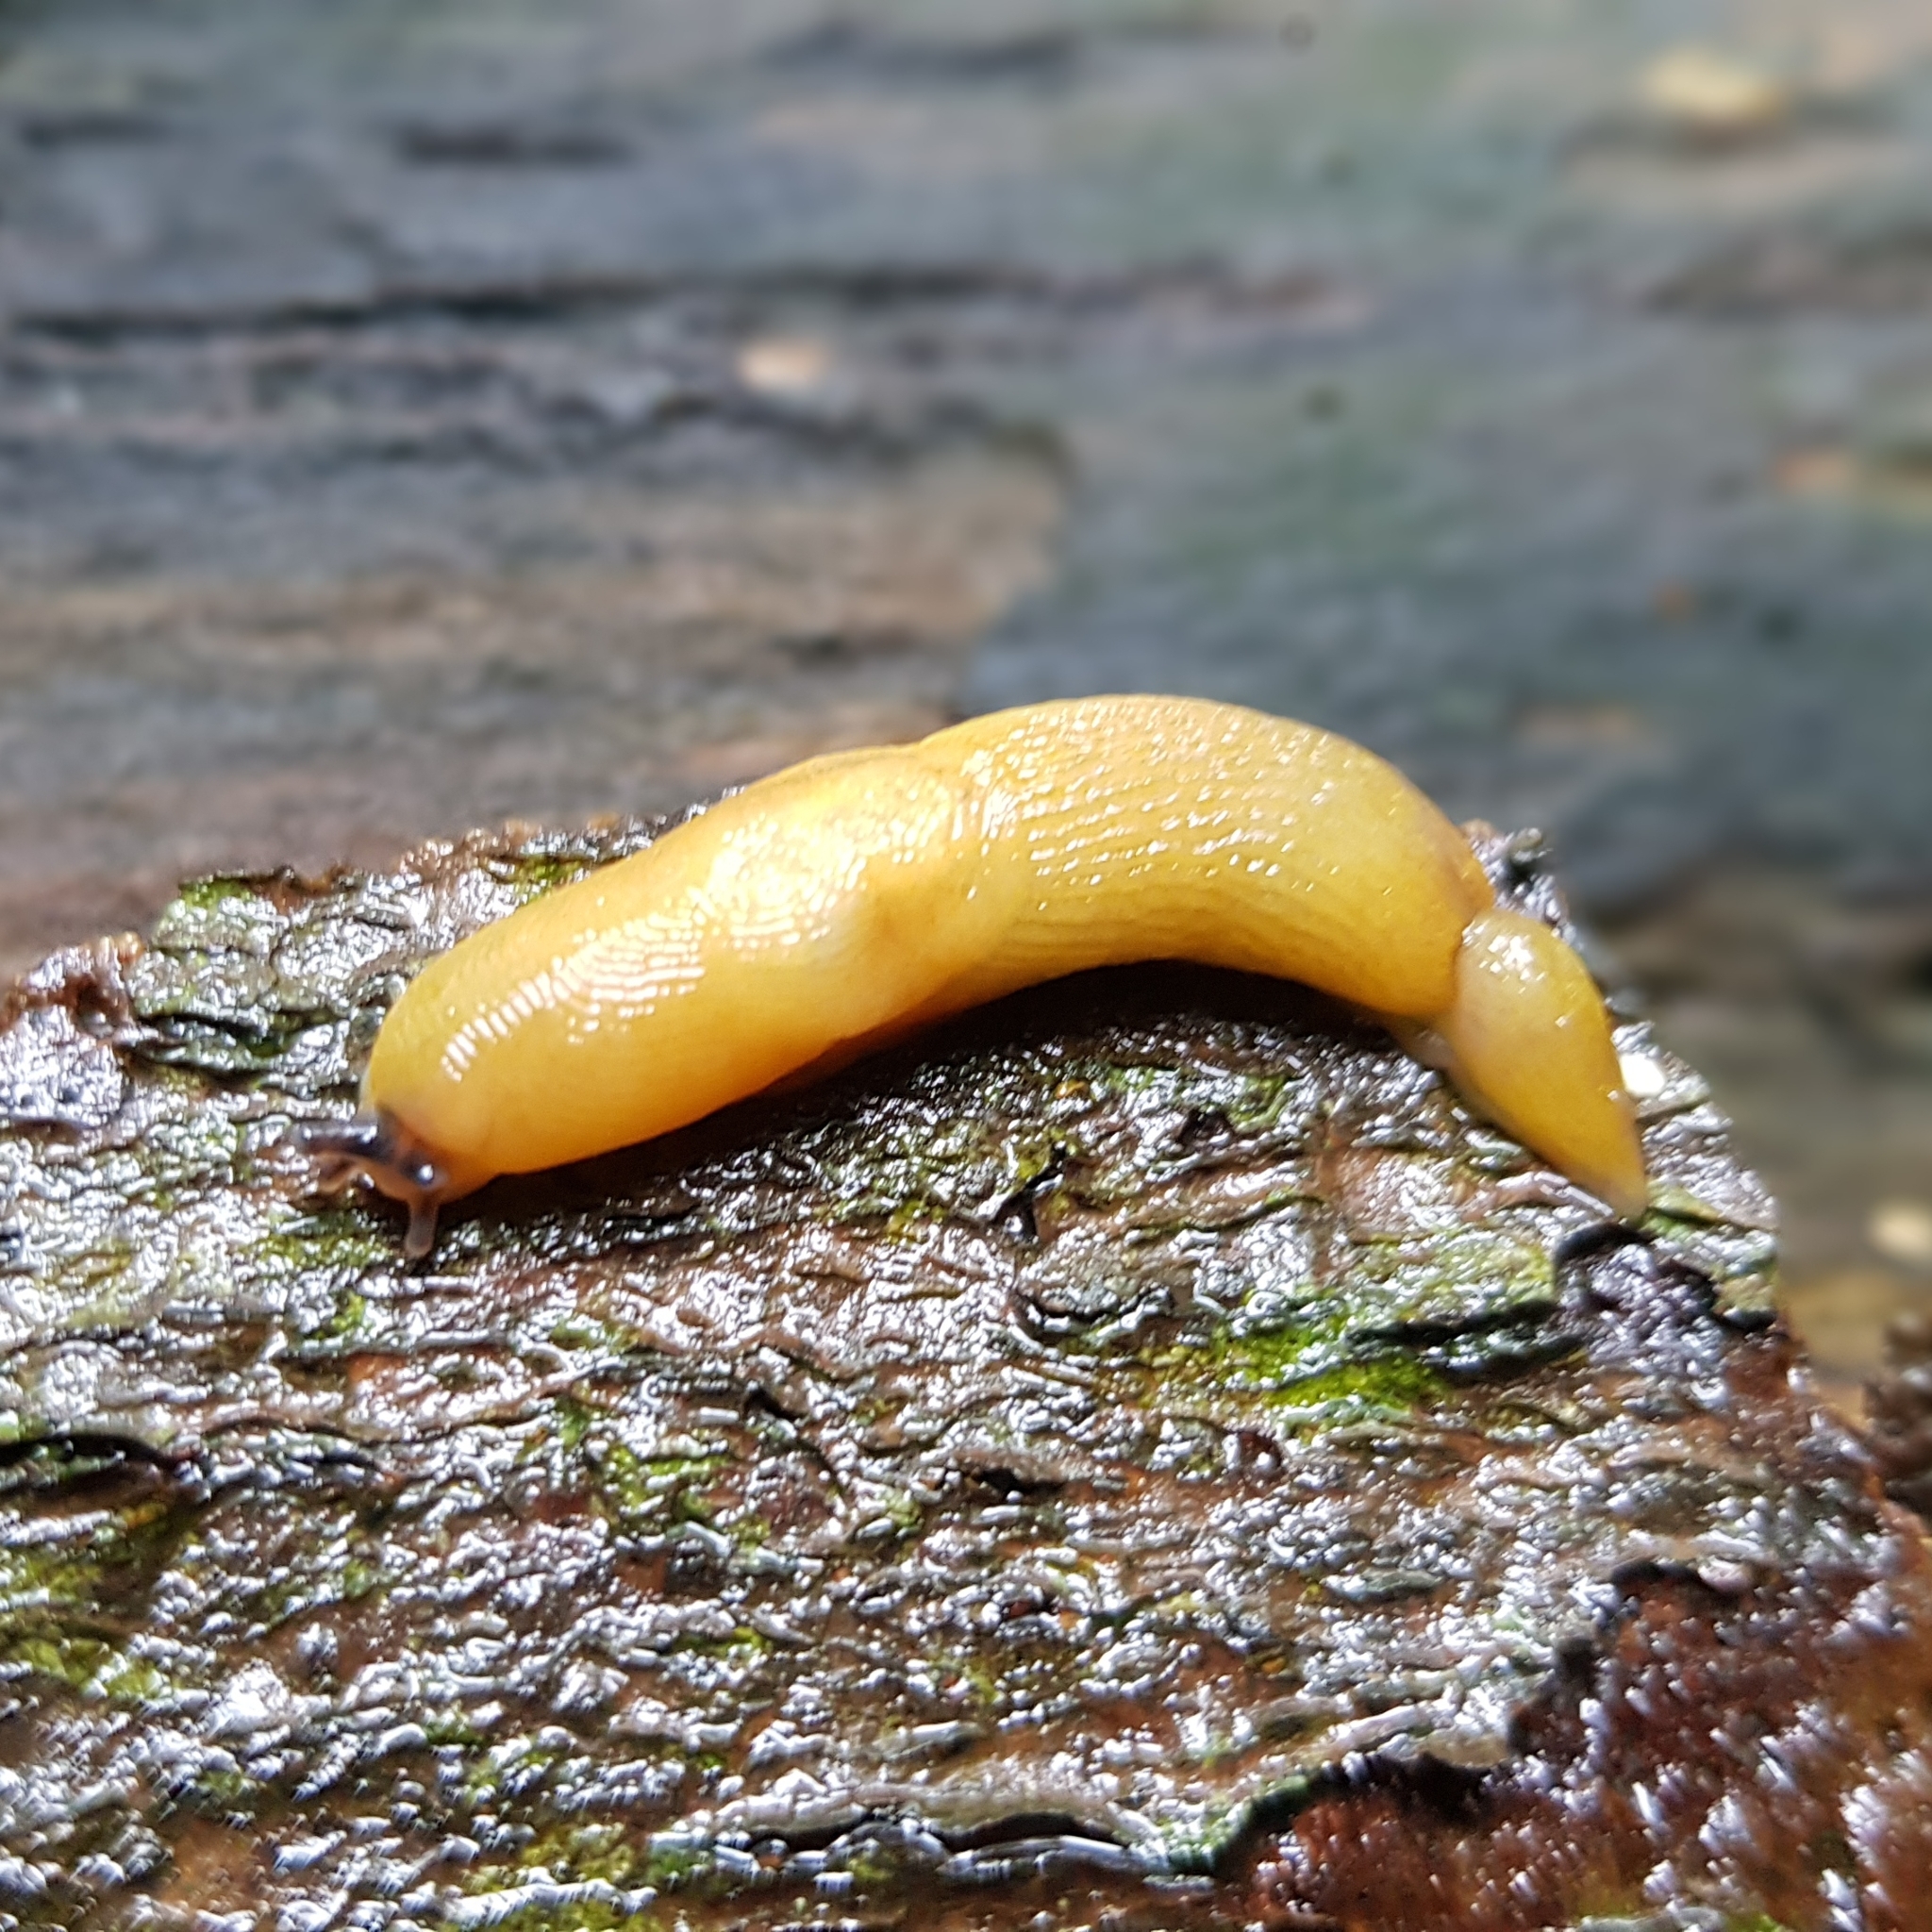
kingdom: Animalia
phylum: Mollusca
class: Gastropoda
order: Stylommatophora
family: Limacidae
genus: Malacolimax
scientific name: Malacolimax tenellus
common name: Lemon slug
